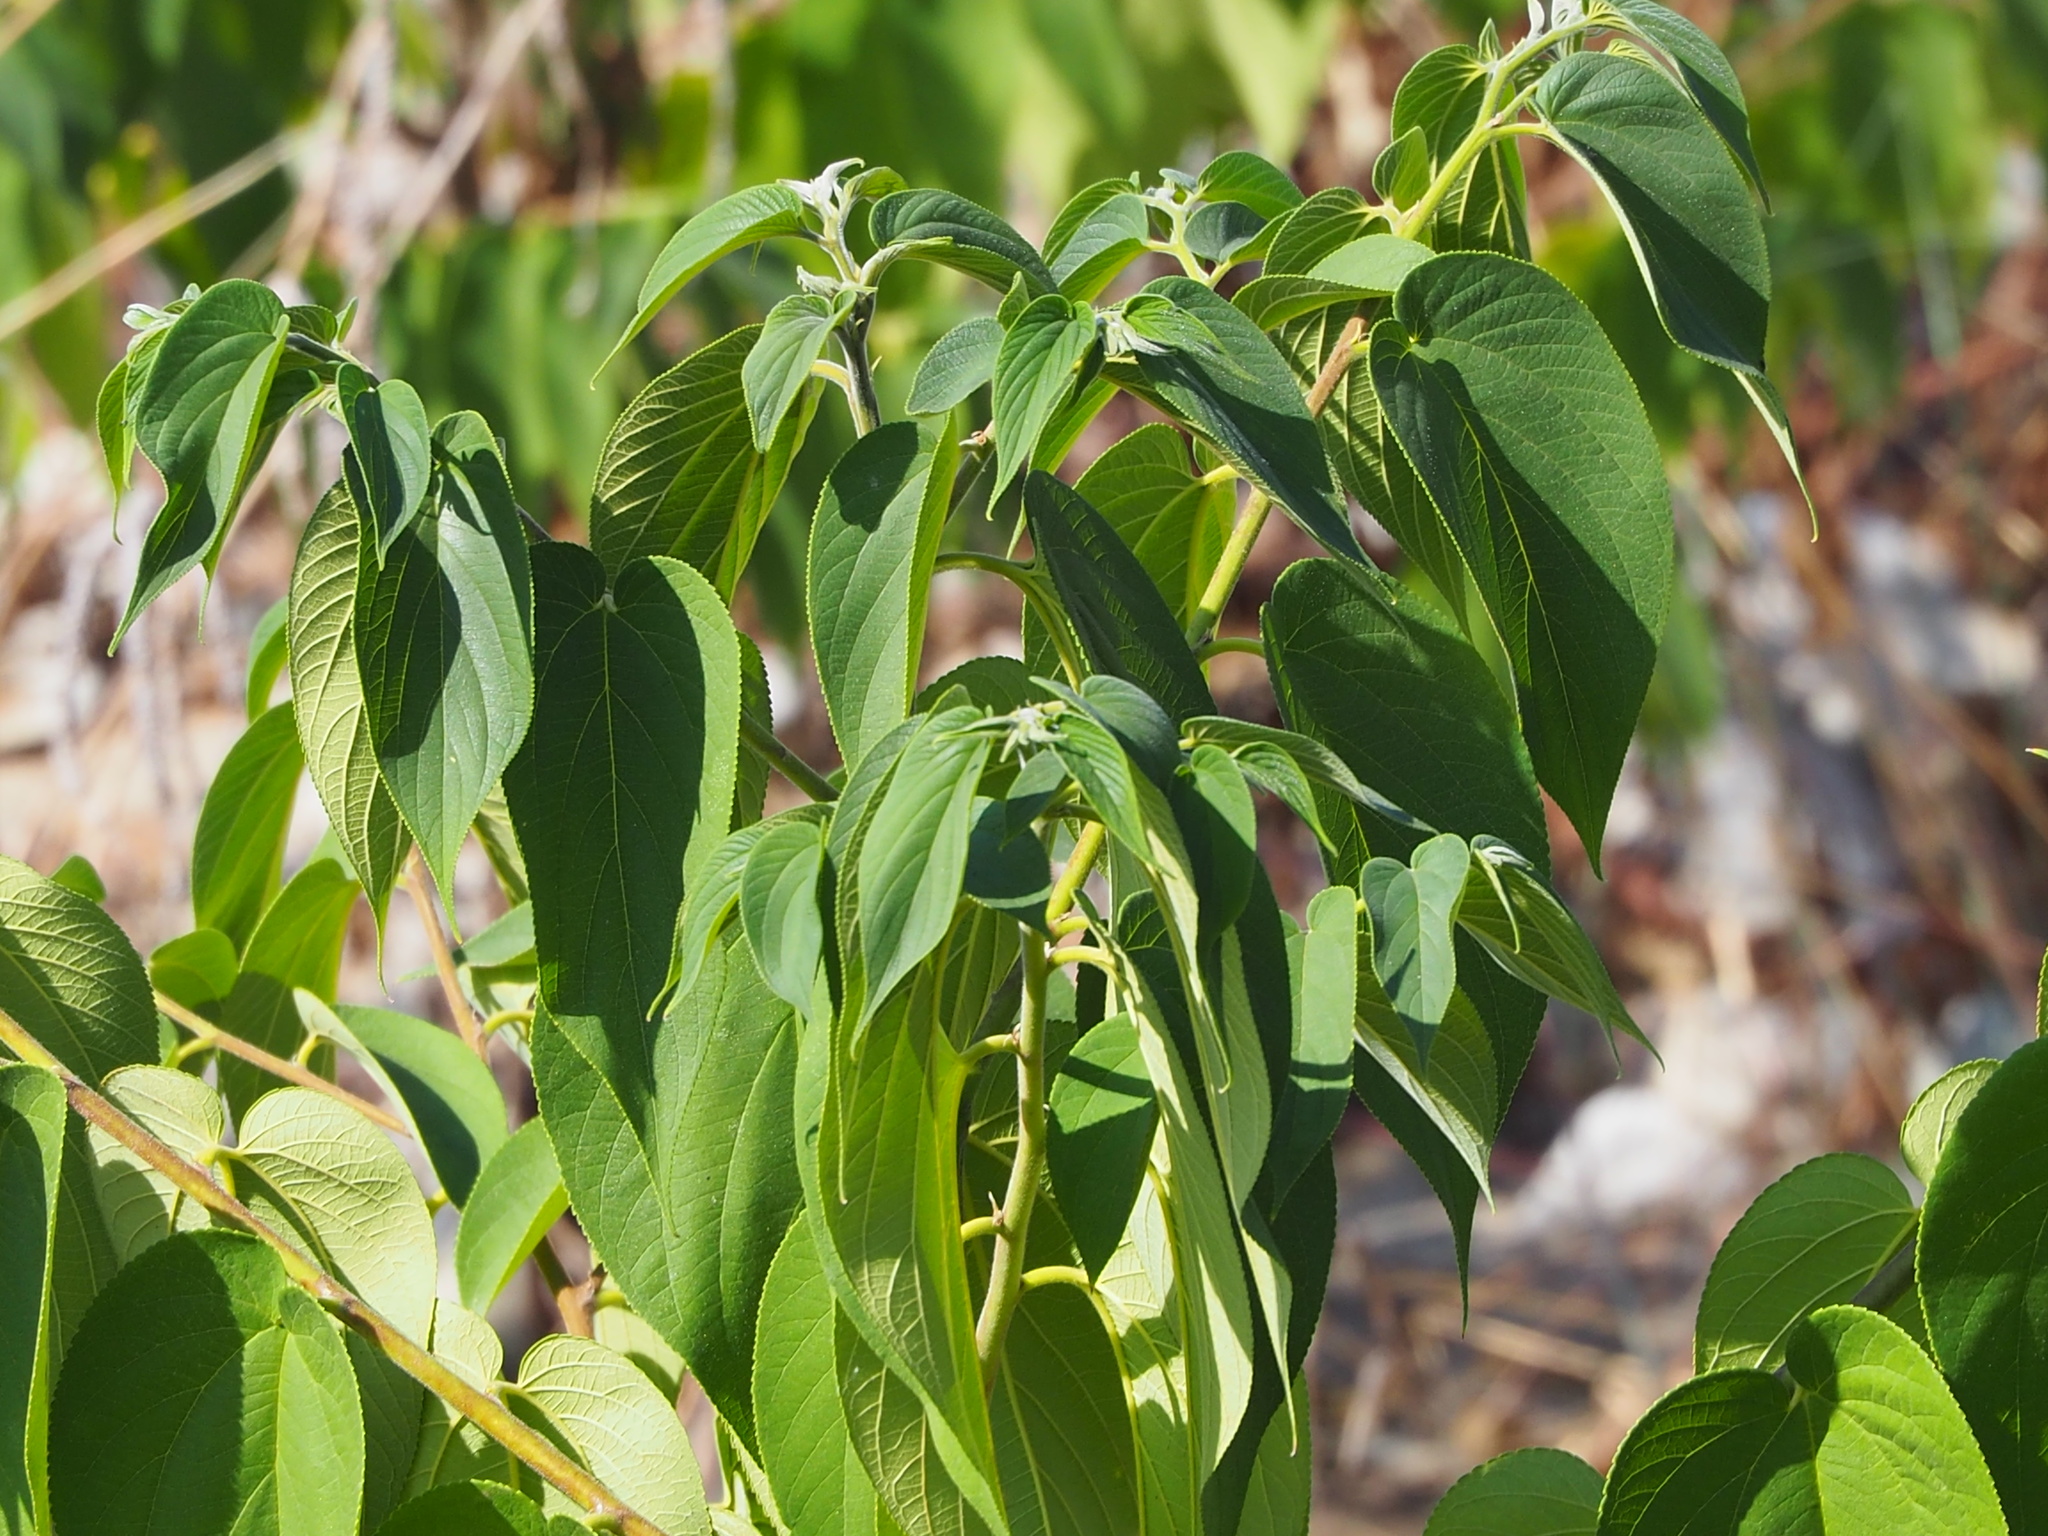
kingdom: Plantae
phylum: Tracheophyta
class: Magnoliopsida
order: Rosales
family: Cannabaceae
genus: Trema
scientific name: Trema orientale
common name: Indian charcoal tree
